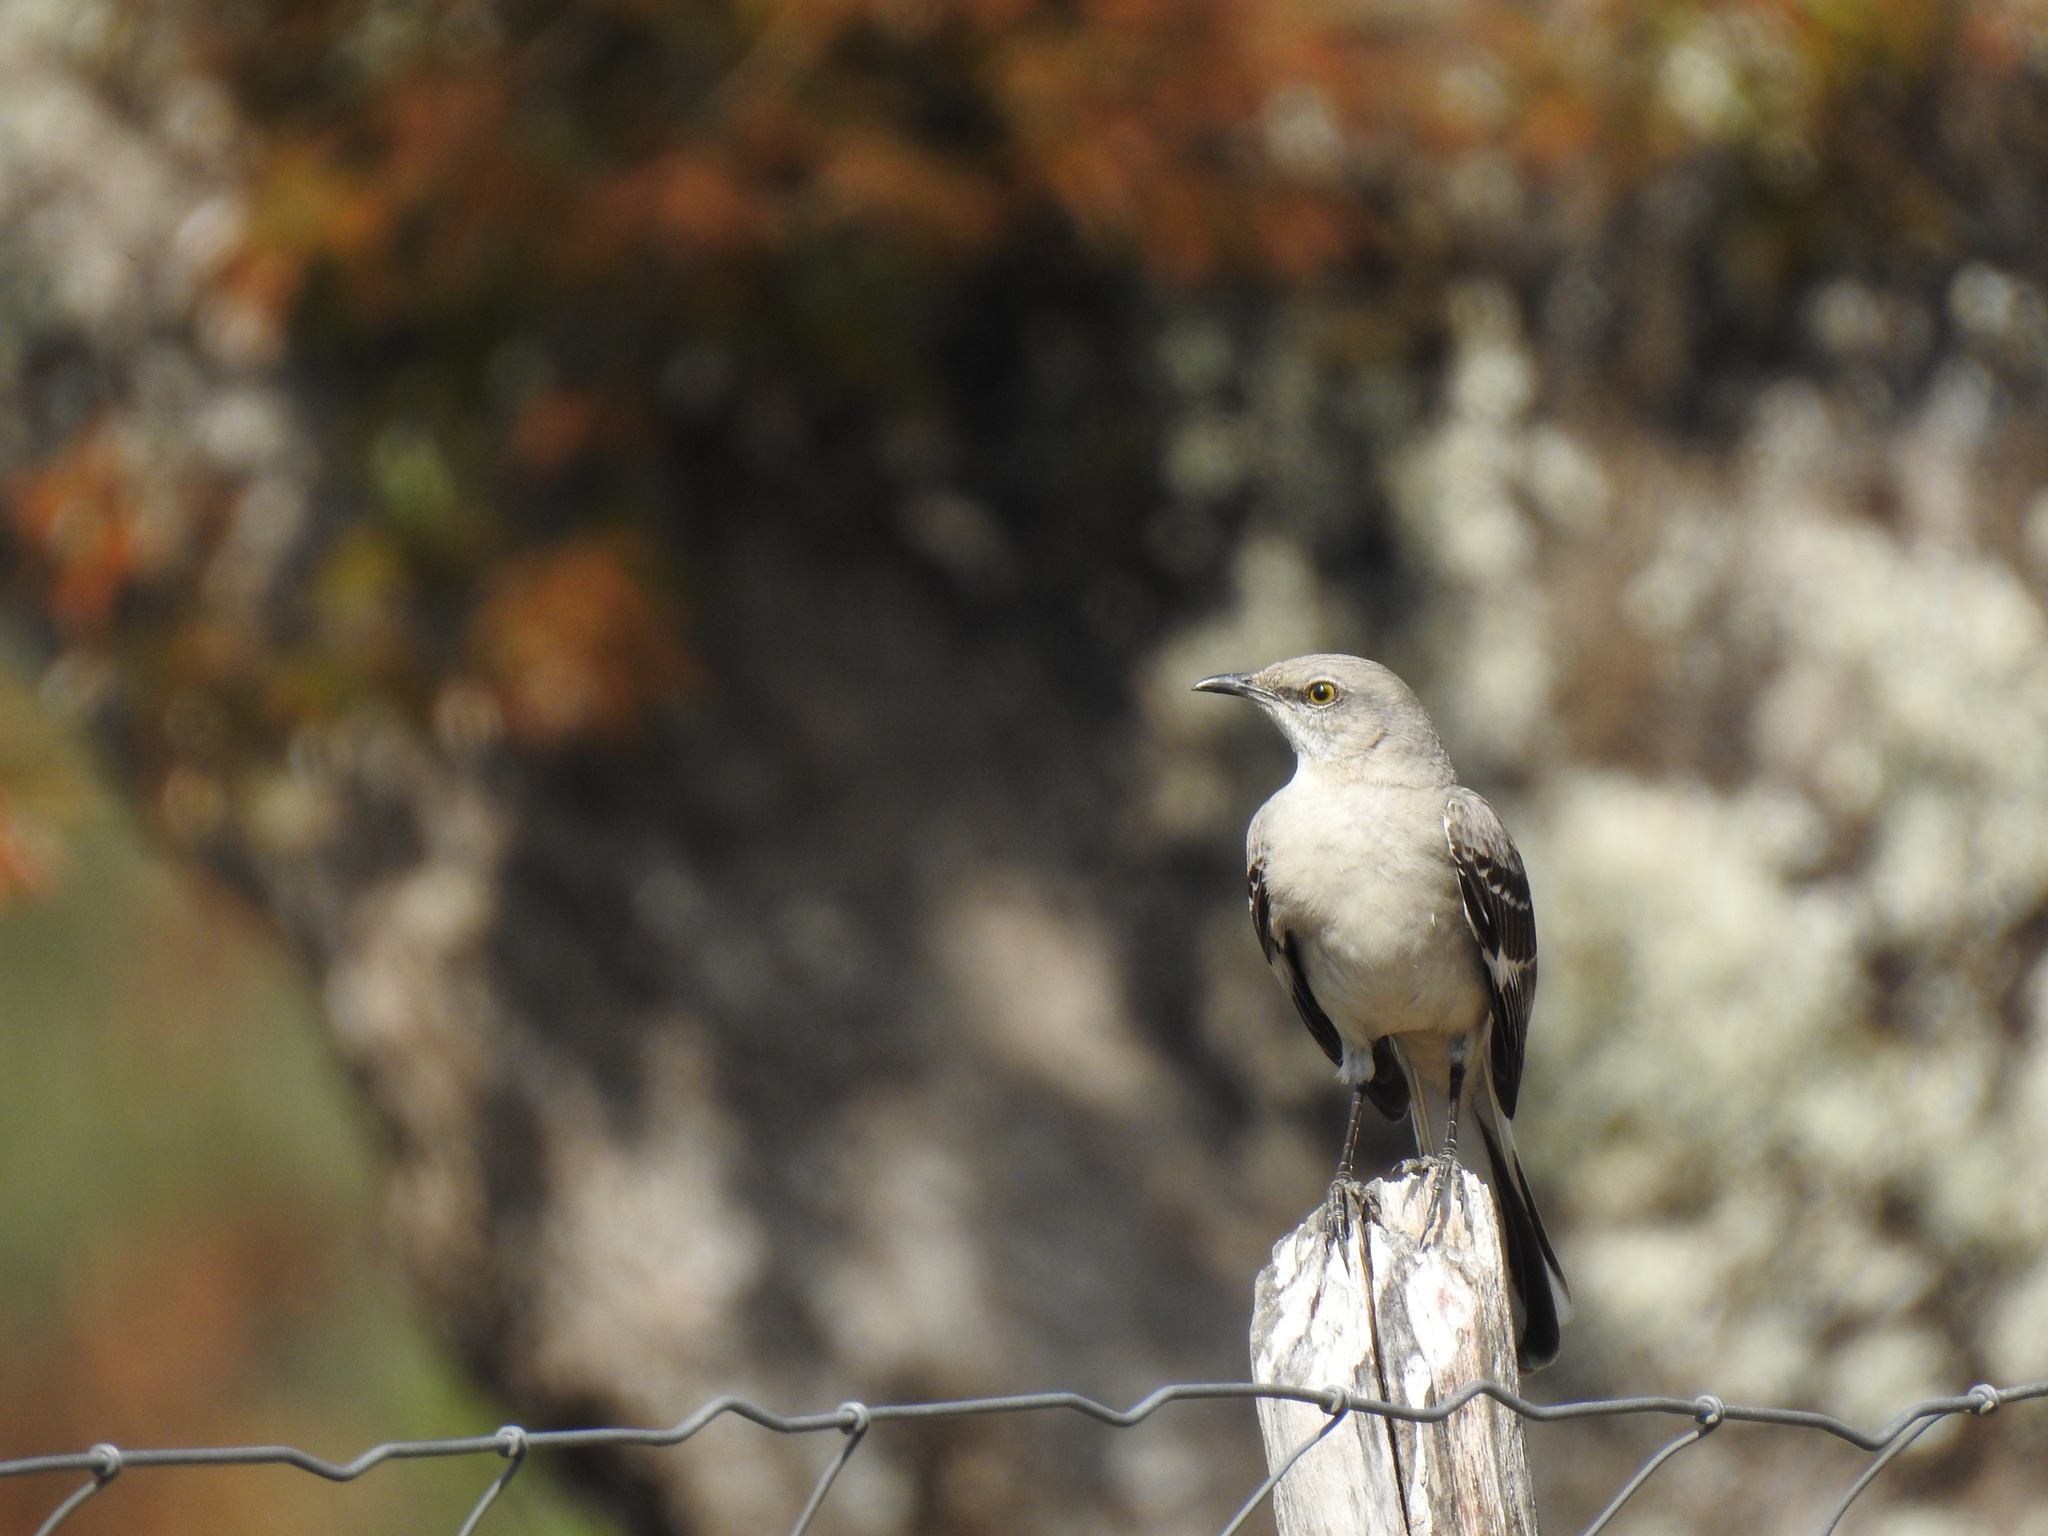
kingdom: Animalia
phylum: Chordata
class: Aves
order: Passeriformes
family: Mimidae
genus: Mimus
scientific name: Mimus polyglottos
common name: Northern mockingbird
